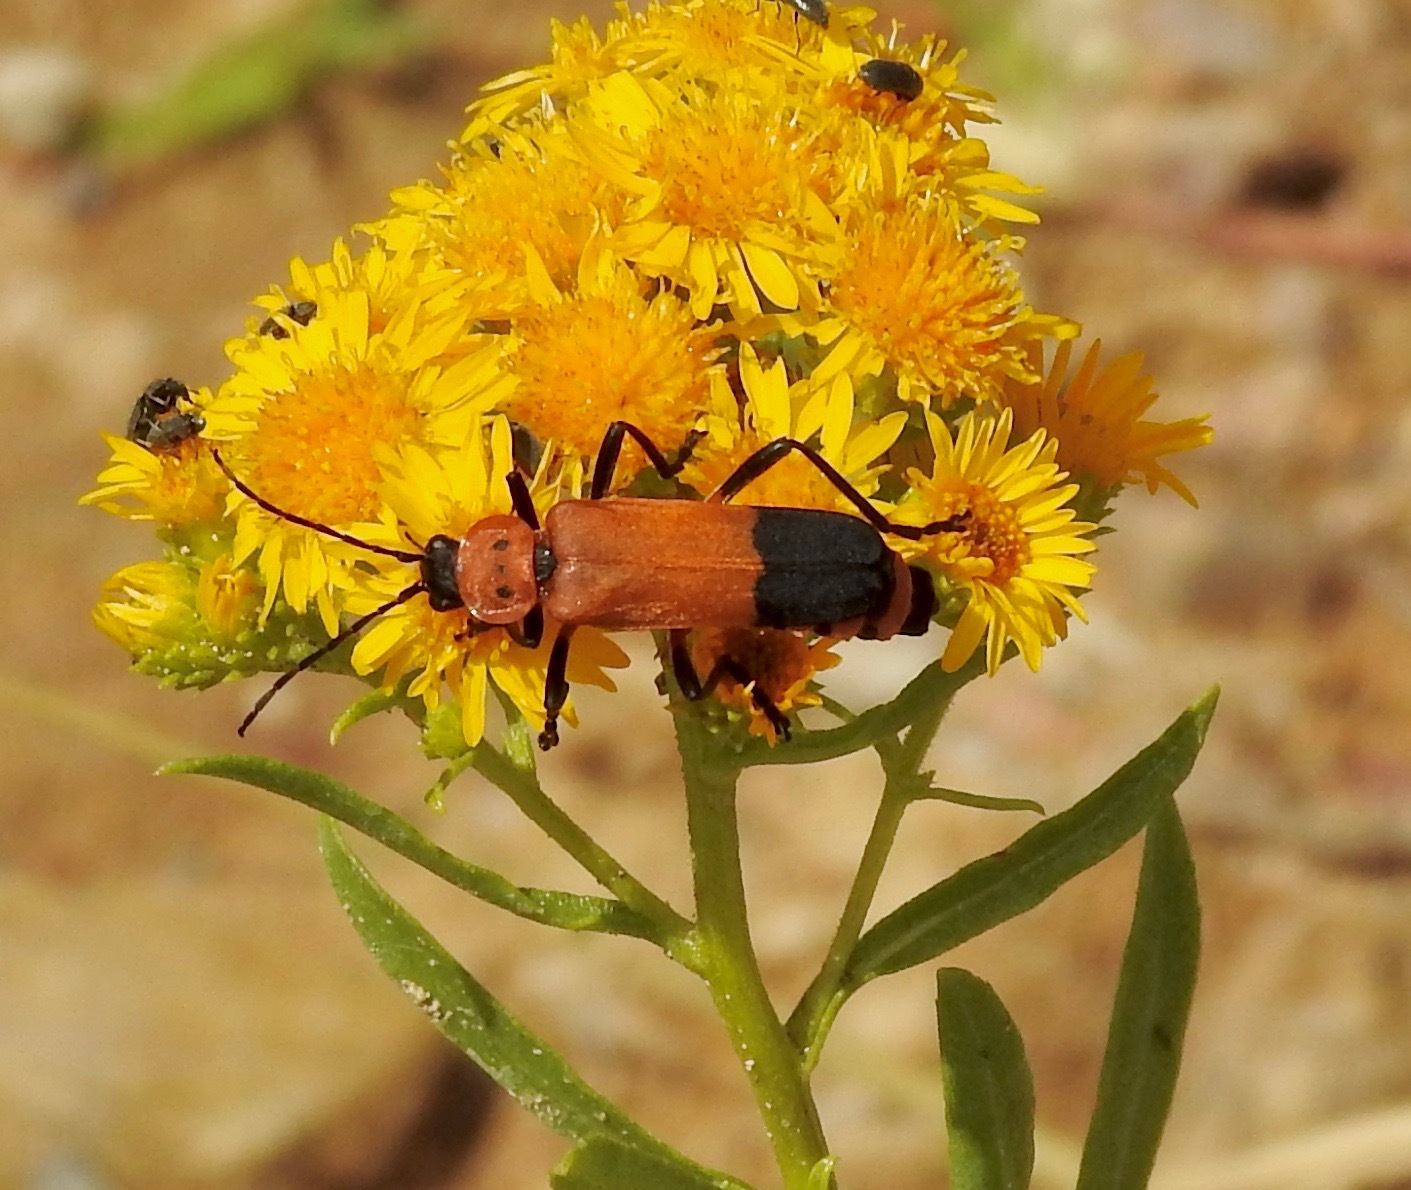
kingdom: Animalia
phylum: Arthropoda
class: Insecta
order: Coleoptera
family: Cantharidae
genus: Chauliognathus
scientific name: Chauliognathus profundus
